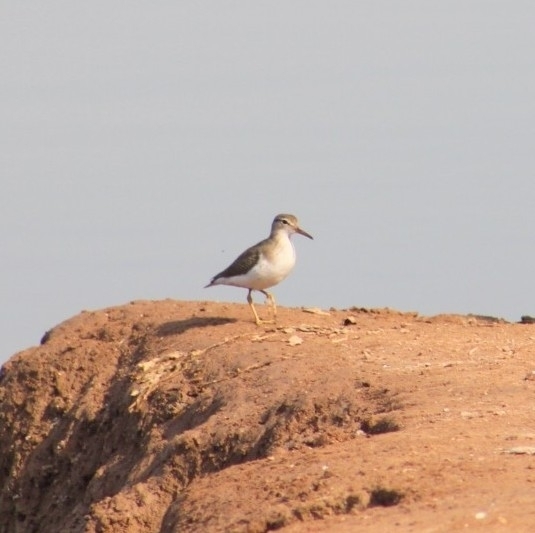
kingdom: Animalia
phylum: Chordata
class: Aves
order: Charadriiformes
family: Scolopacidae
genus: Actitis
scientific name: Actitis macularius
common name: Spotted sandpiper
